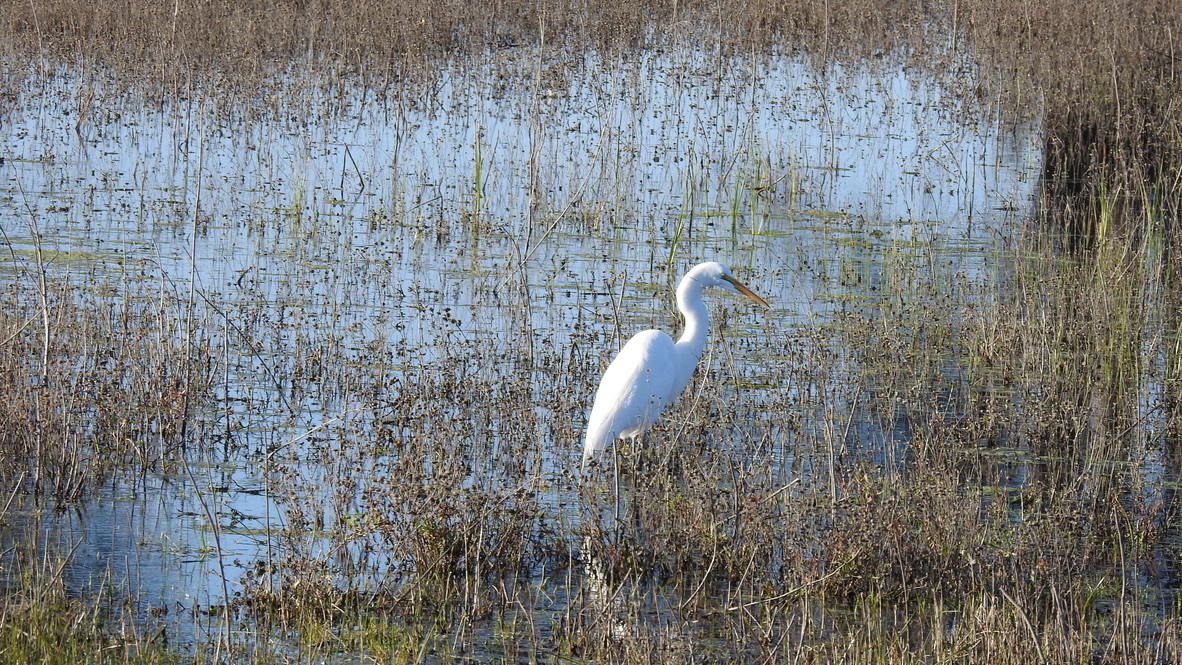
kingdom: Animalia
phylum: Chordata
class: Aves
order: Pelecaniformes
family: Ardeidae
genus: Ardea
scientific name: Ardea alba
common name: Great egret
